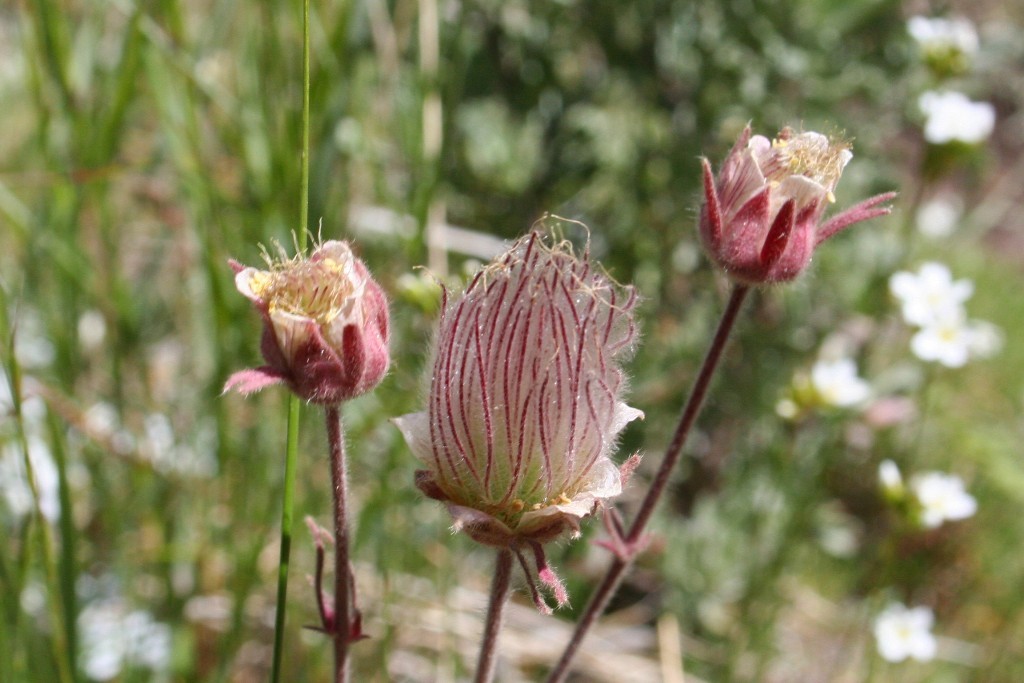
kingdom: Plantae
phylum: Tracheophyta
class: Magnoliopsida
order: Rosales
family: Rosaceae
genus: Geum
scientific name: Geum triflorum
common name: Old man's whiskers
